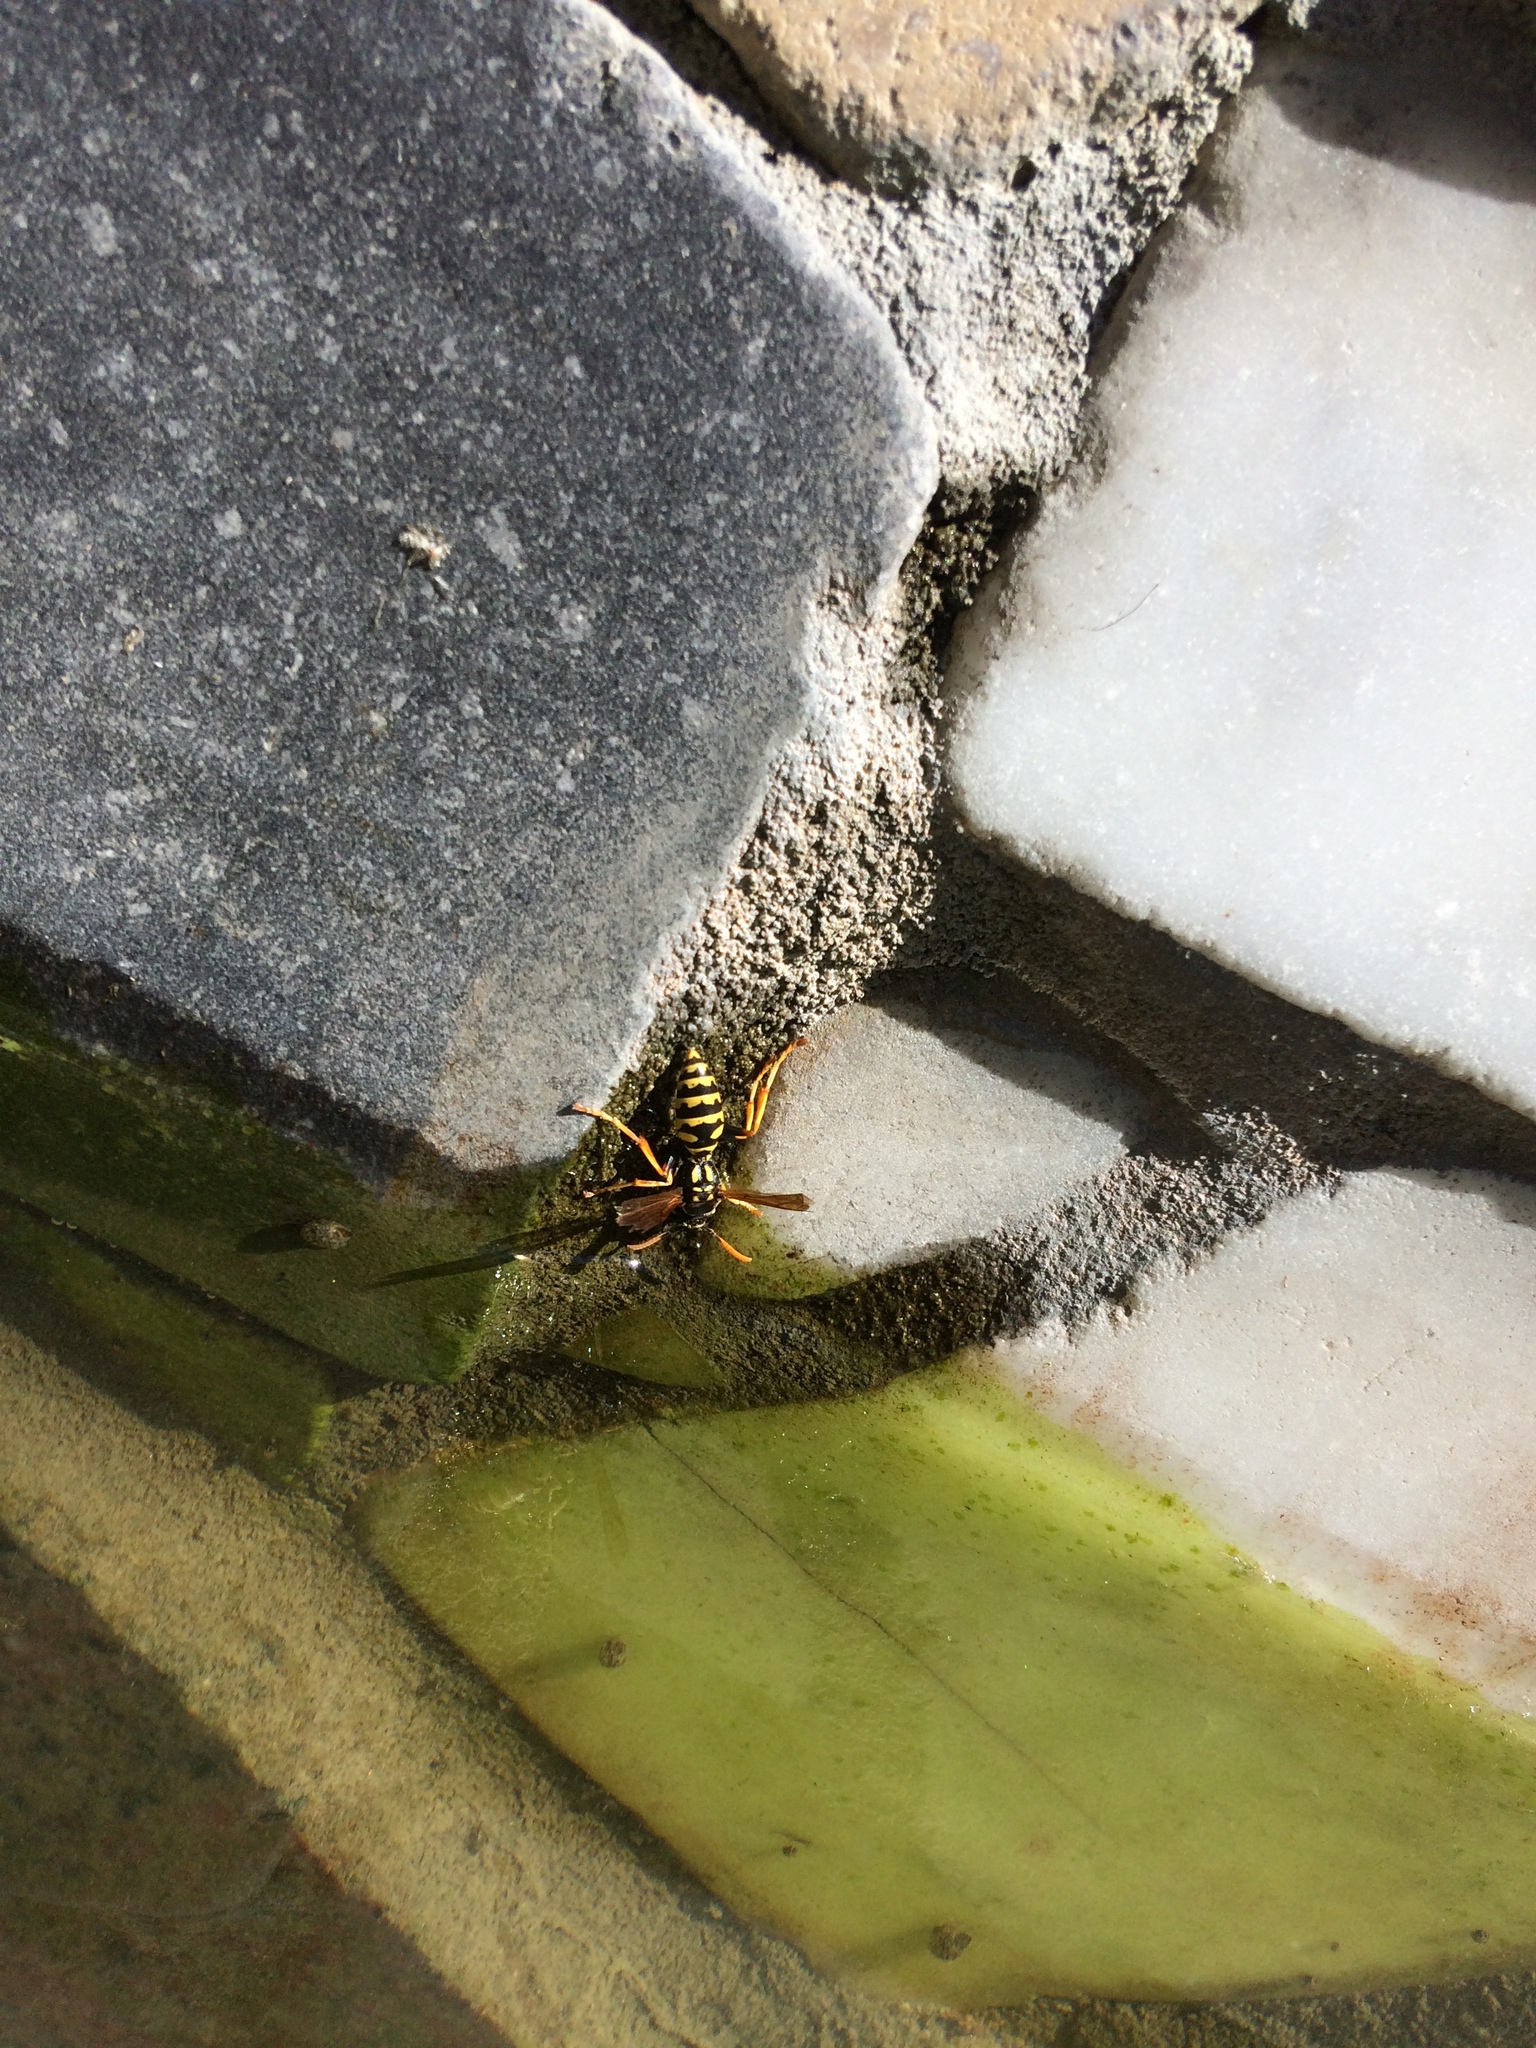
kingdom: Animalia
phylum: Arthropoda
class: Insecta
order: Hymenoptera
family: Eumenidae
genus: Polistes
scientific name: Polistes dominula
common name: Paper wasp
